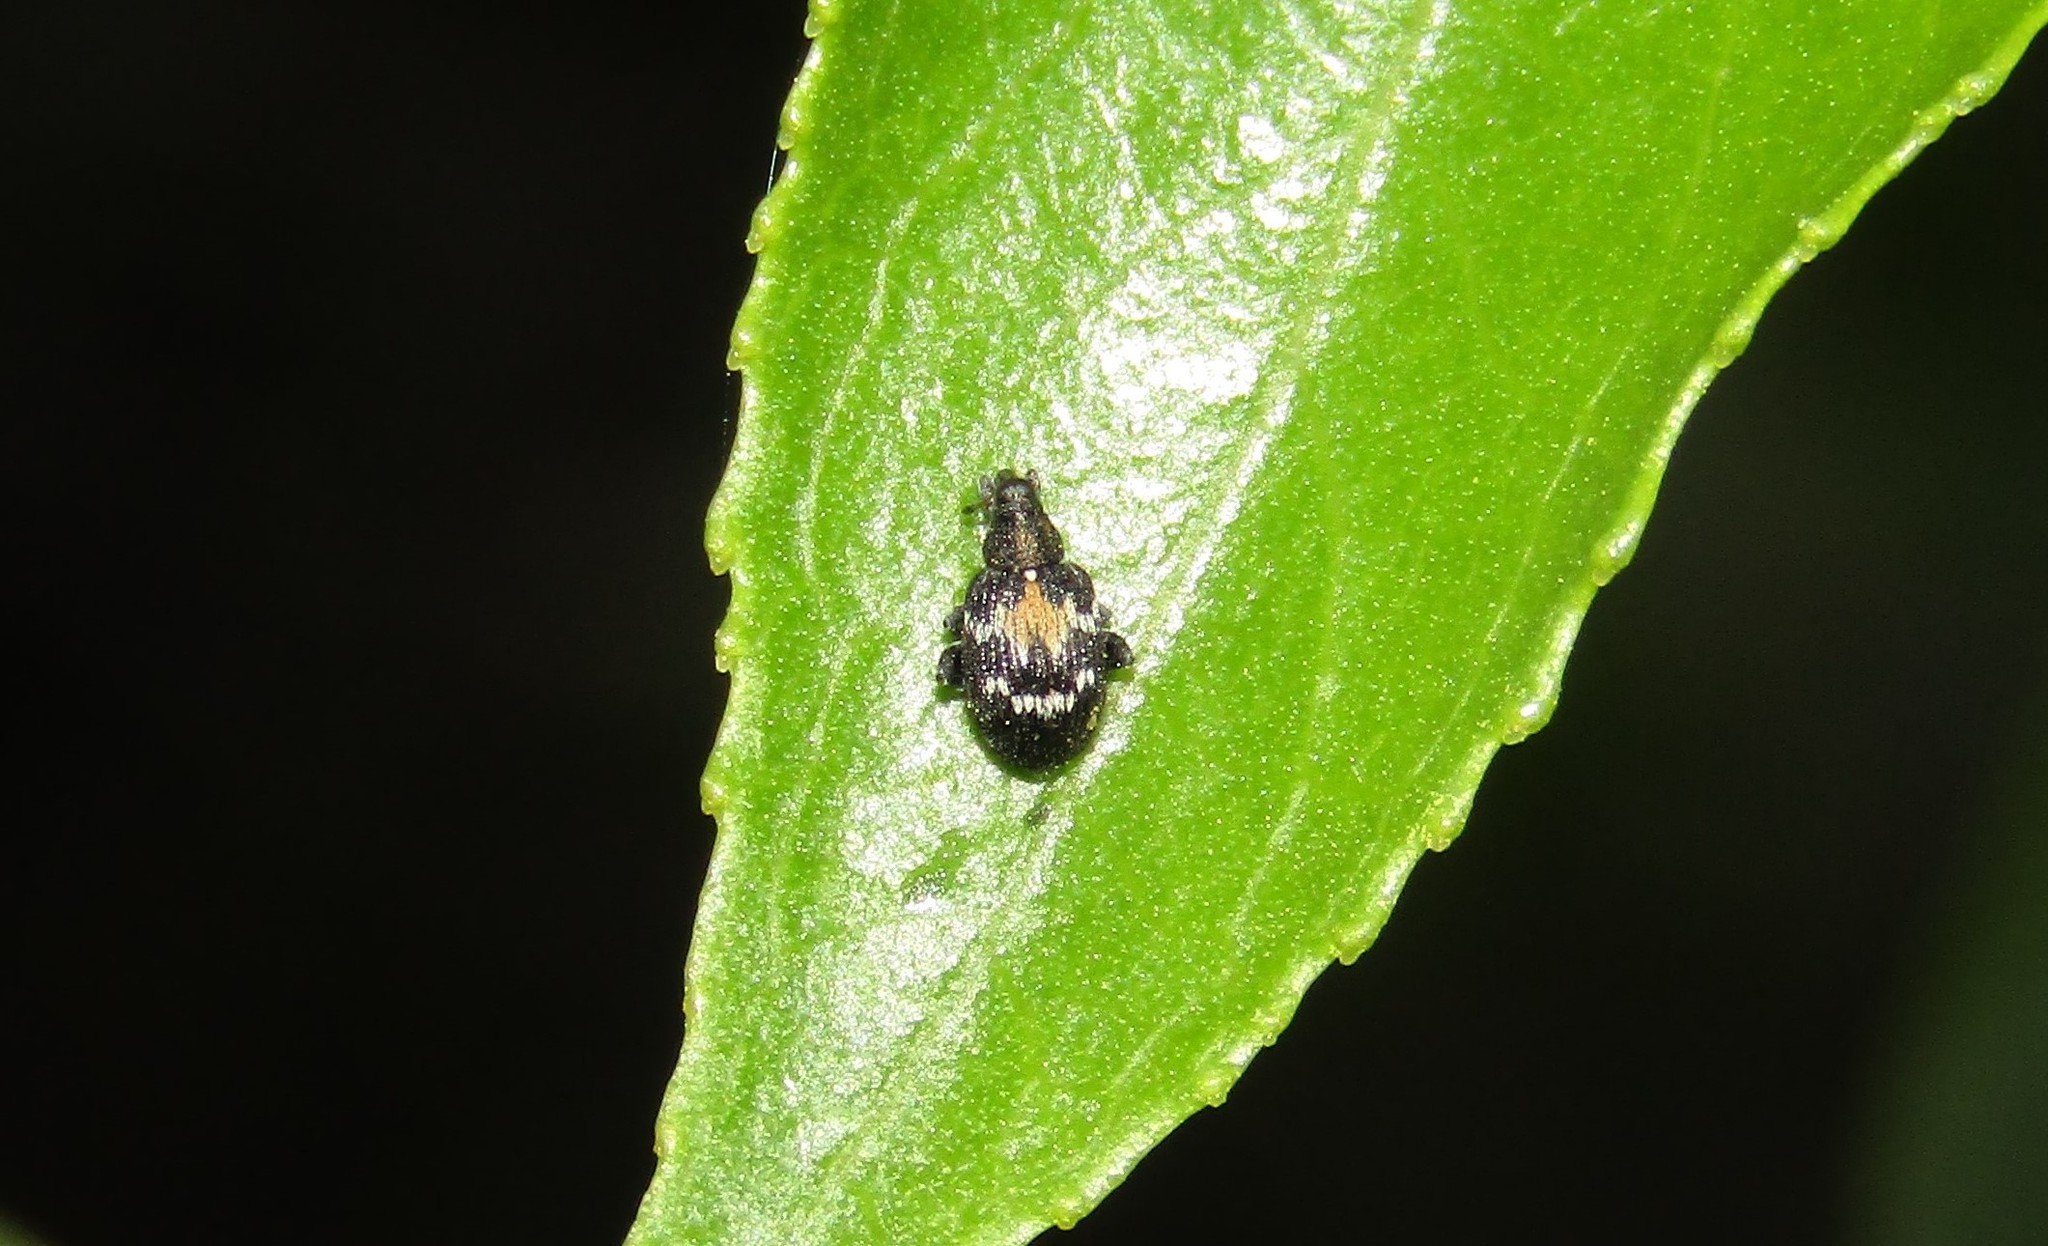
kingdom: Animalia
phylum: Arthropoda
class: Insecta
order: Coleoptera
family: Curculionidae
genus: Tachyerges
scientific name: Tachyerges salicis
